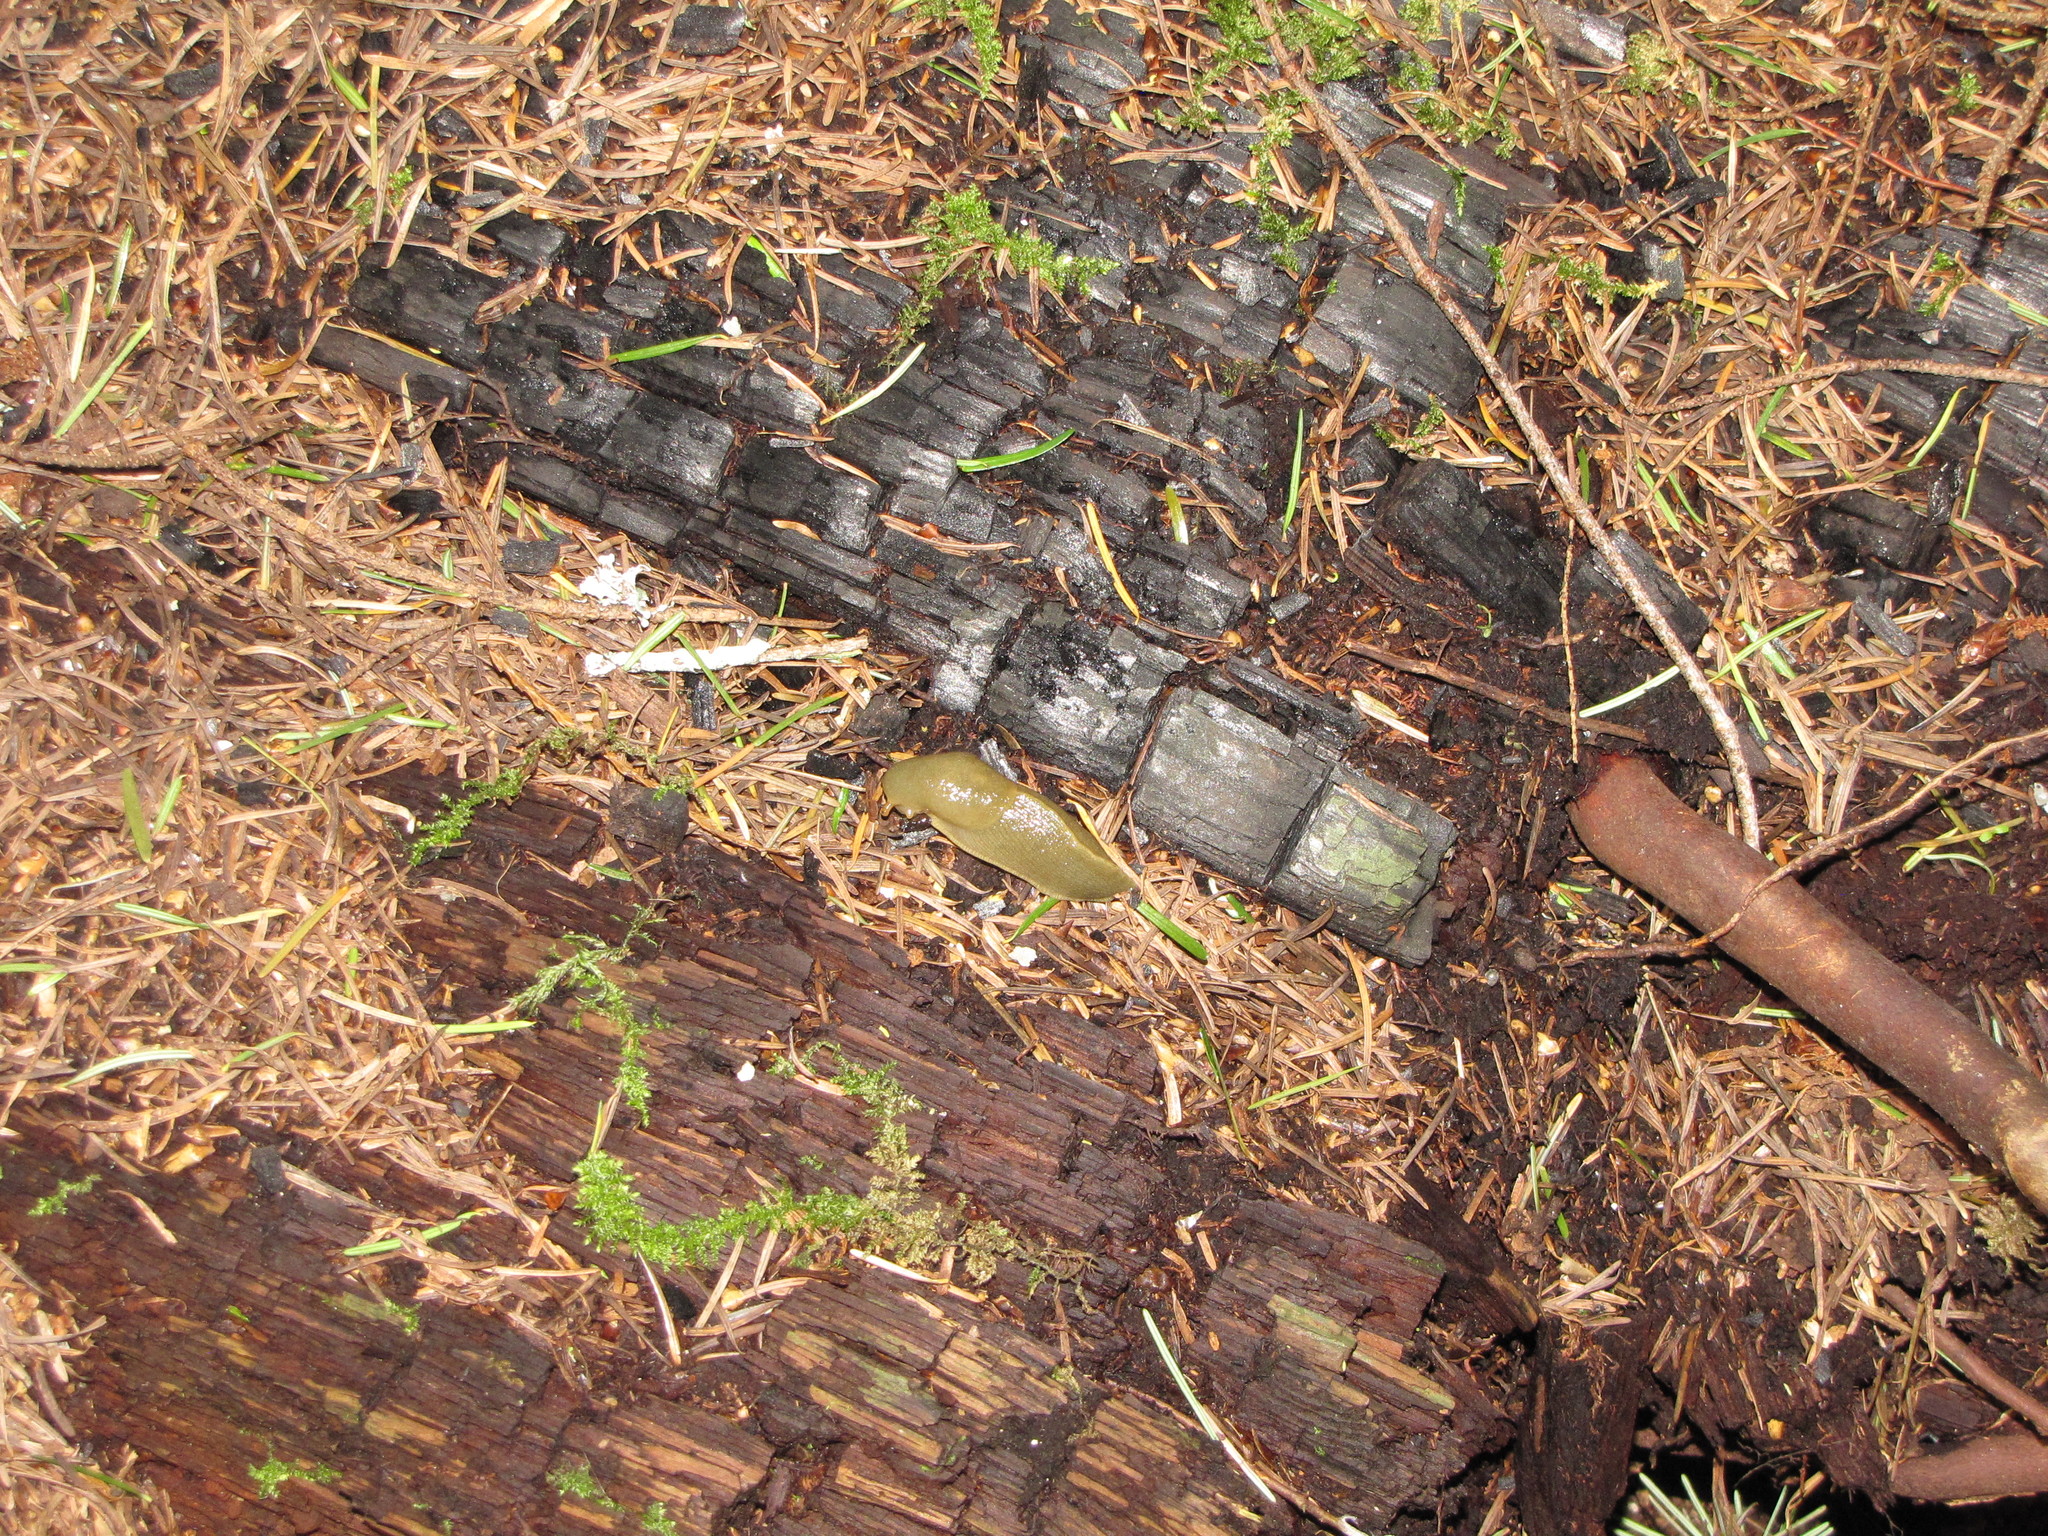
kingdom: Animalia
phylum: Mollusca
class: Gastropoda
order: Stylommatophora
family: Ariolimacidae
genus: Ariolimax
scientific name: Ariolimax columbianus
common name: Pacific banana slug
